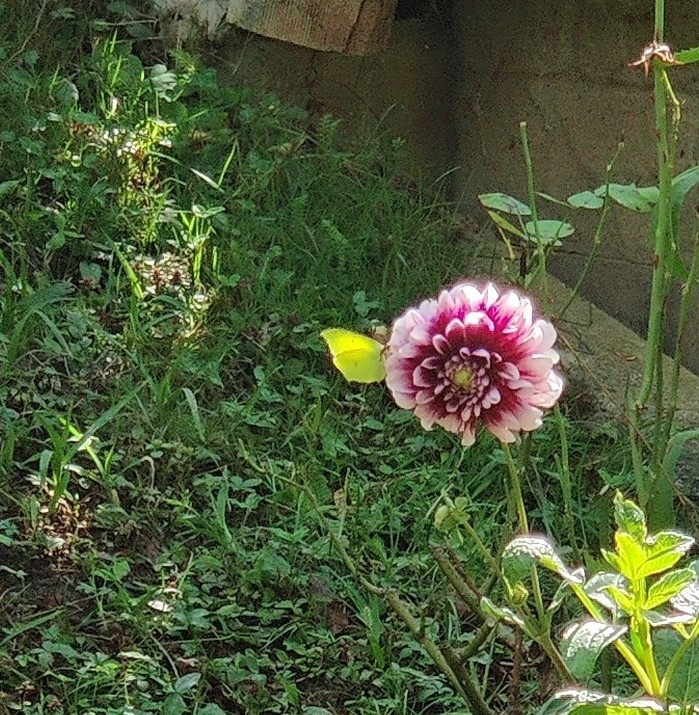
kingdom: Animalia
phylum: Arthropoda
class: Insecta
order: Lepidoptera
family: Pieridae
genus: Gonepteryx
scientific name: Gonepteryx rhamni
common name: Brimstone
